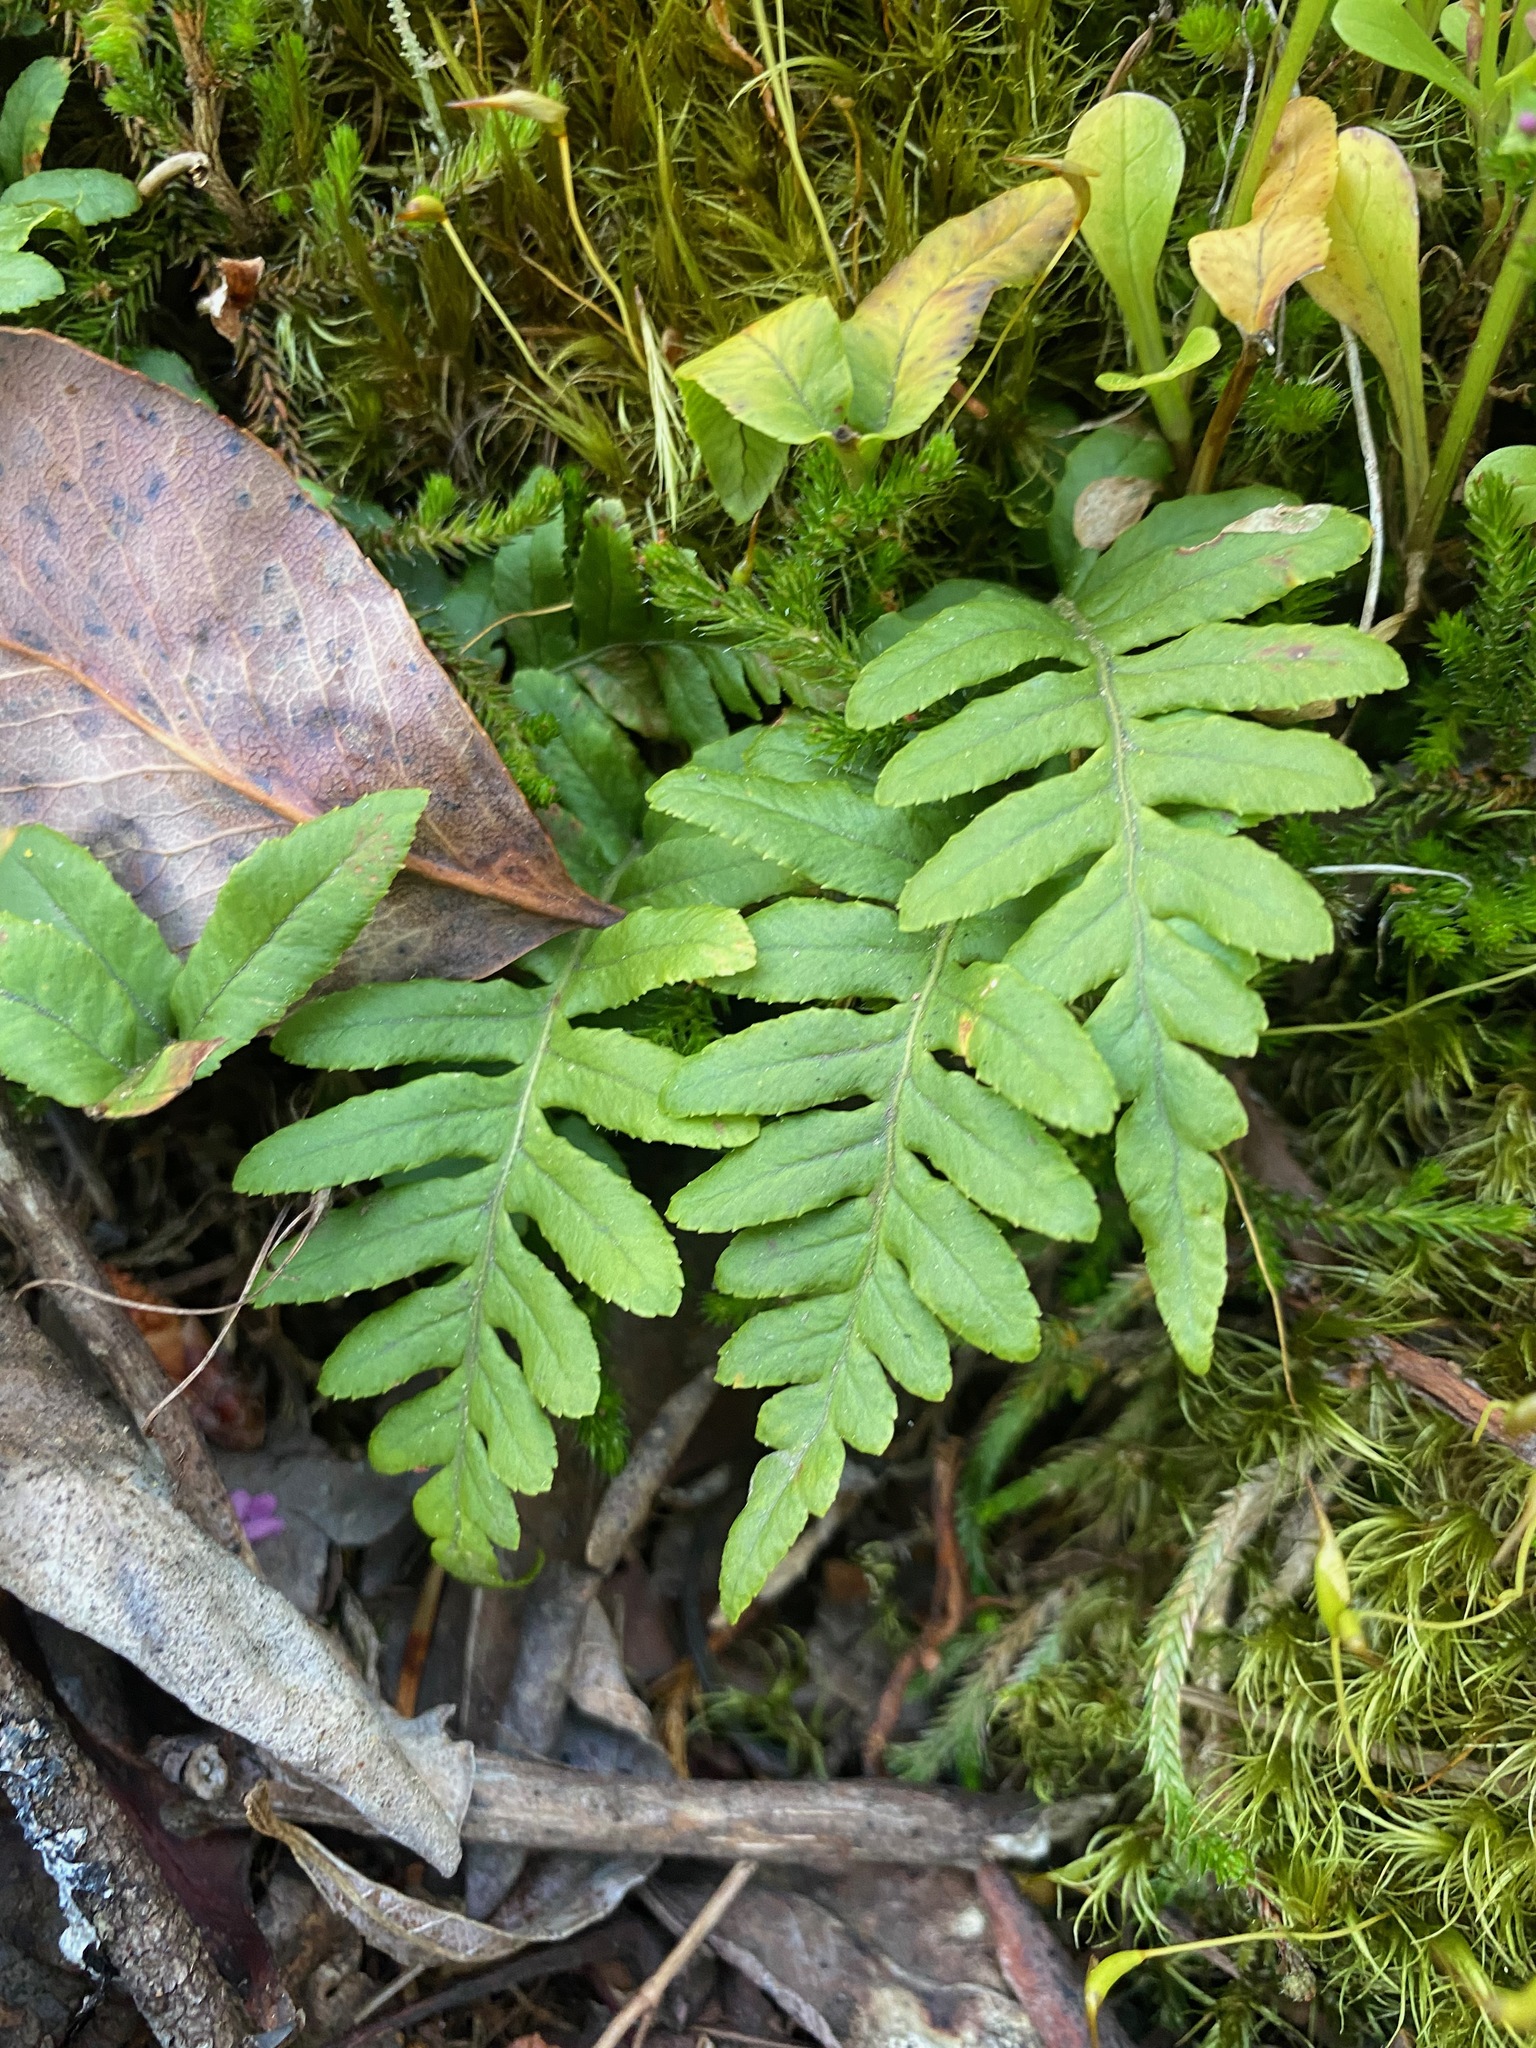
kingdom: Plantae
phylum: Tracheophyta
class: Polypodiopsida
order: Polypodiales
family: Polypodiaceae
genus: Polypodium
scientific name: Polypodium glycyrrhiza
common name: Licorice fern
